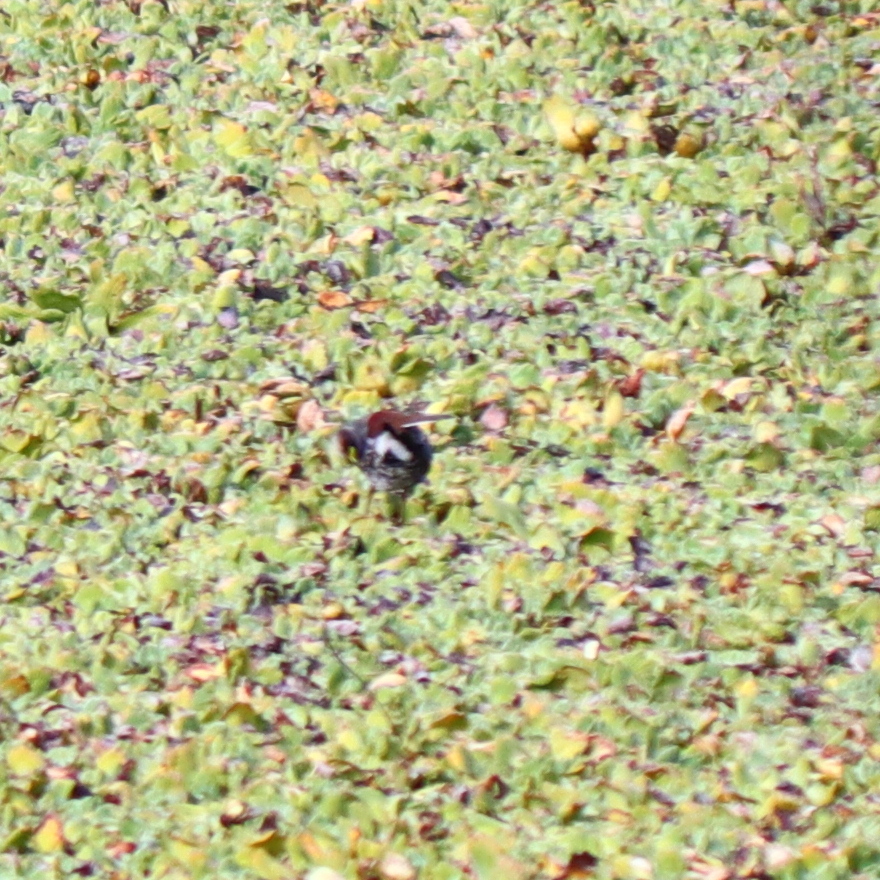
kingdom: Animalia
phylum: Chordata
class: Aves
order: Gruiformes
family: Rallidae
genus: Gallinula
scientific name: Gallinula melanops
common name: Spot-flanked gallinule
